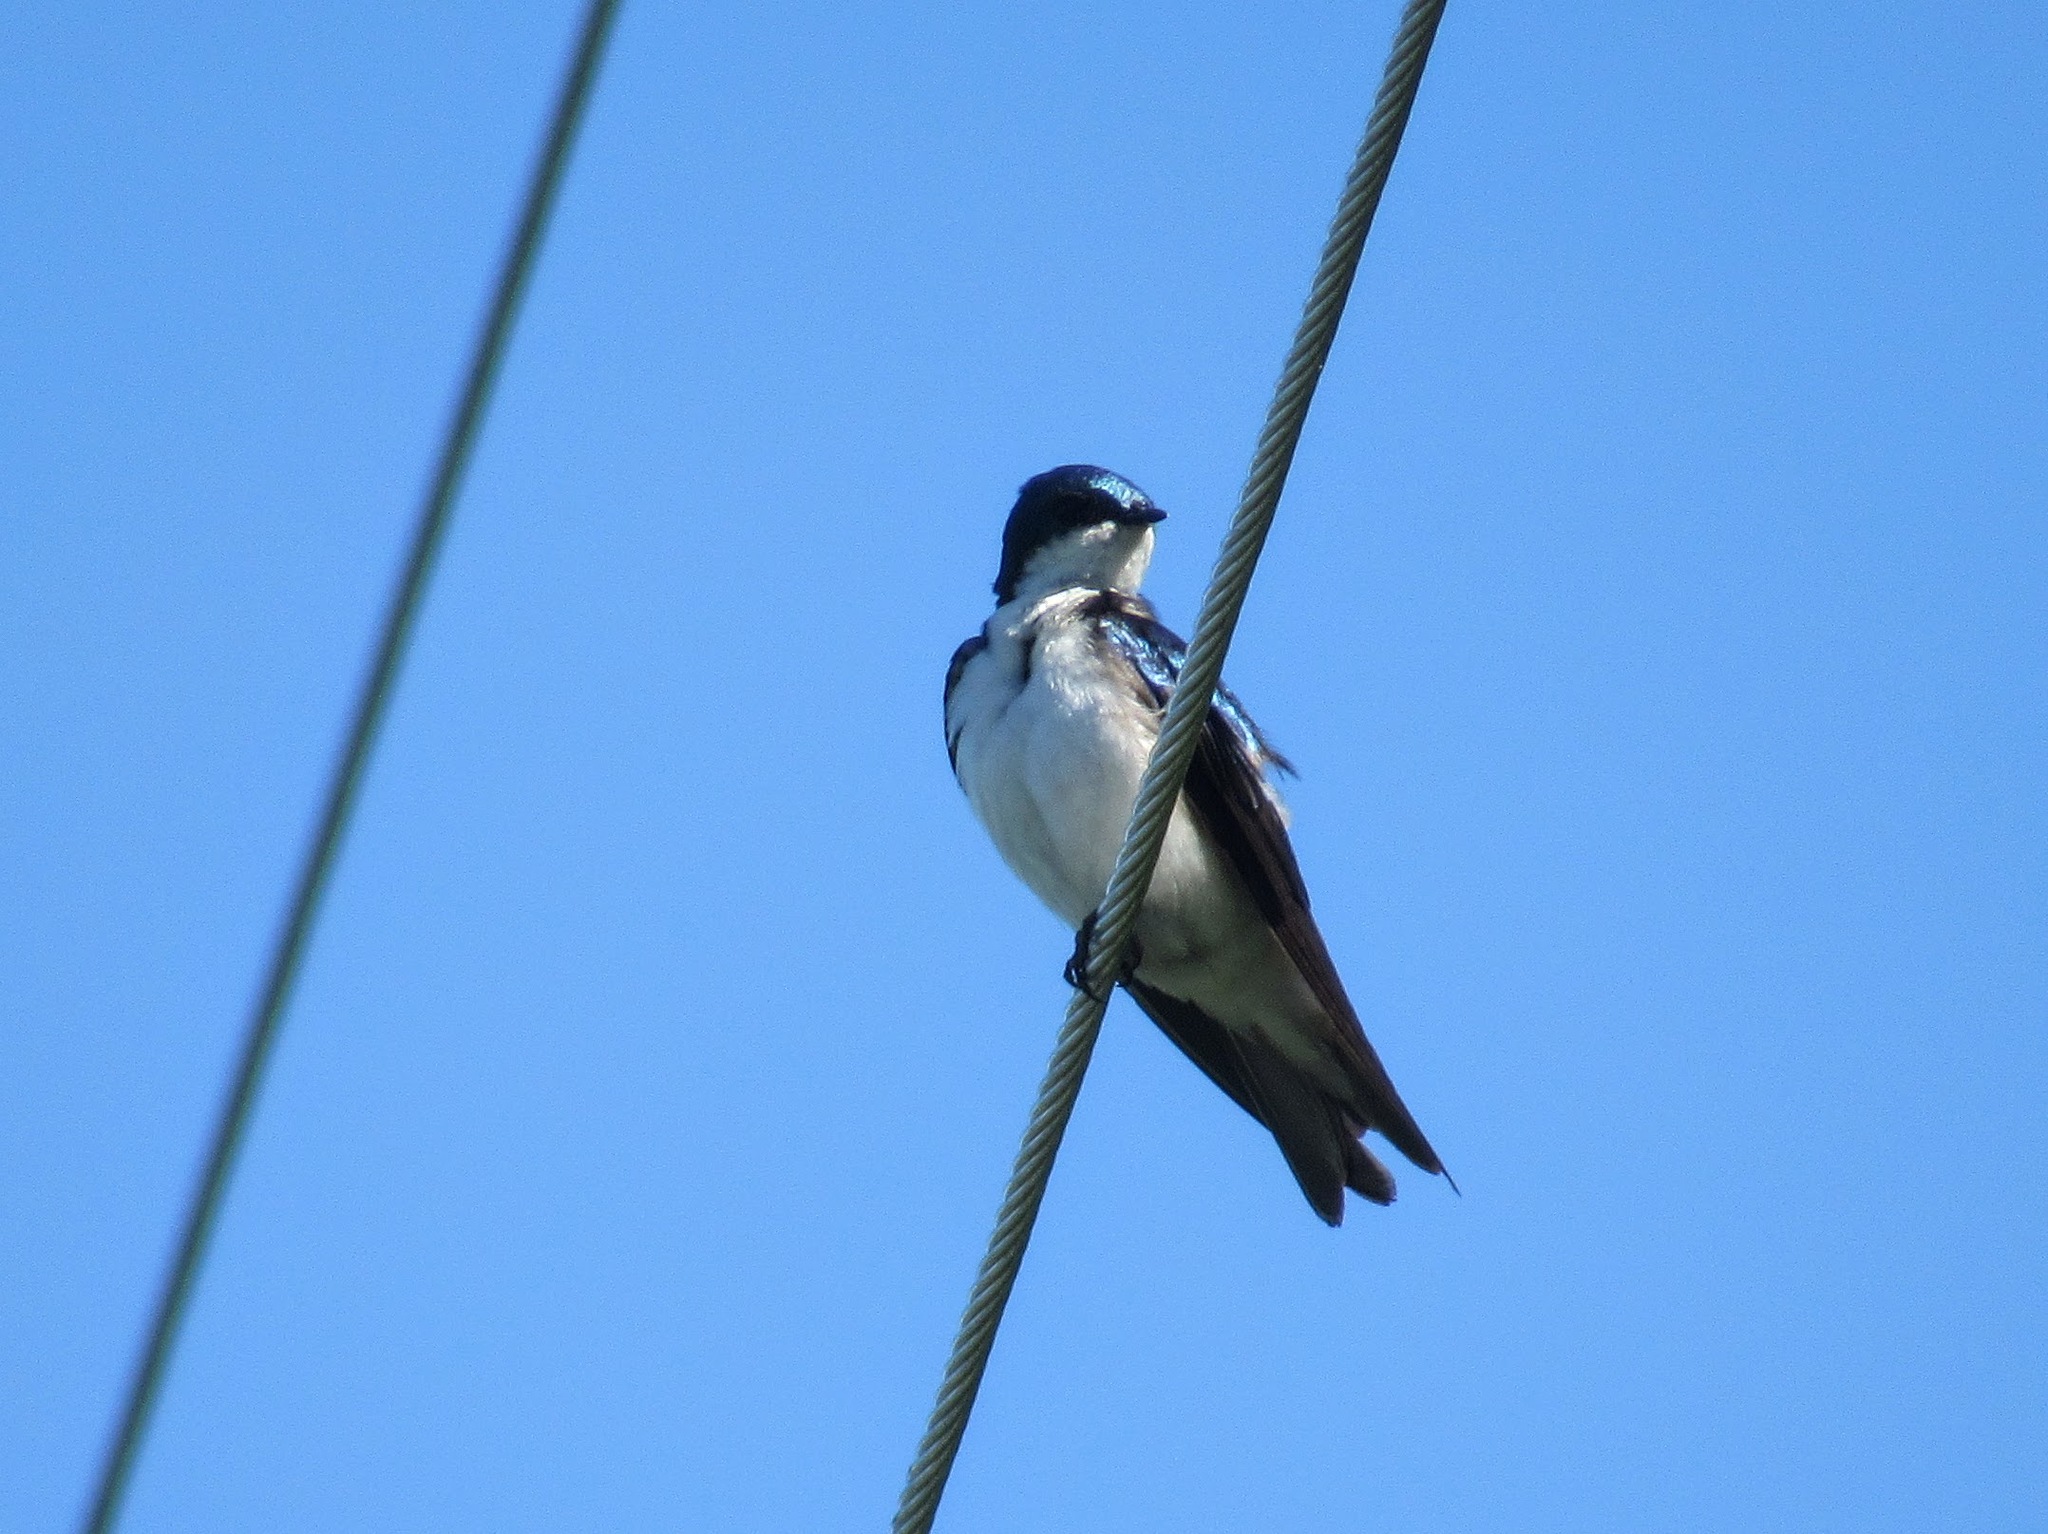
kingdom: Animalia
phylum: Chordata
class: Aves
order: Passeriformes
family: Hirundinidae
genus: Tachycineta
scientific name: Tachycineta bicolor
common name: Tree swallow
